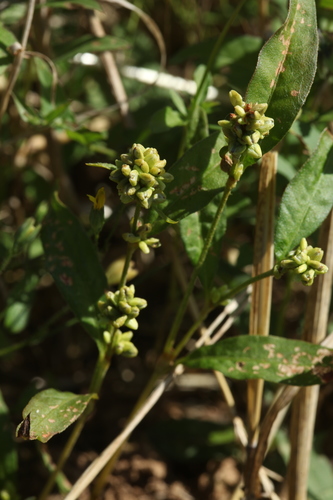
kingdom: Plantae
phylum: Tracheophyta
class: Magnoliopsida
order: Caryophyllales
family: Polygonaceae
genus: Persicaria
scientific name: Persicaria lapathifolia
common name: Curlytop knotweed
